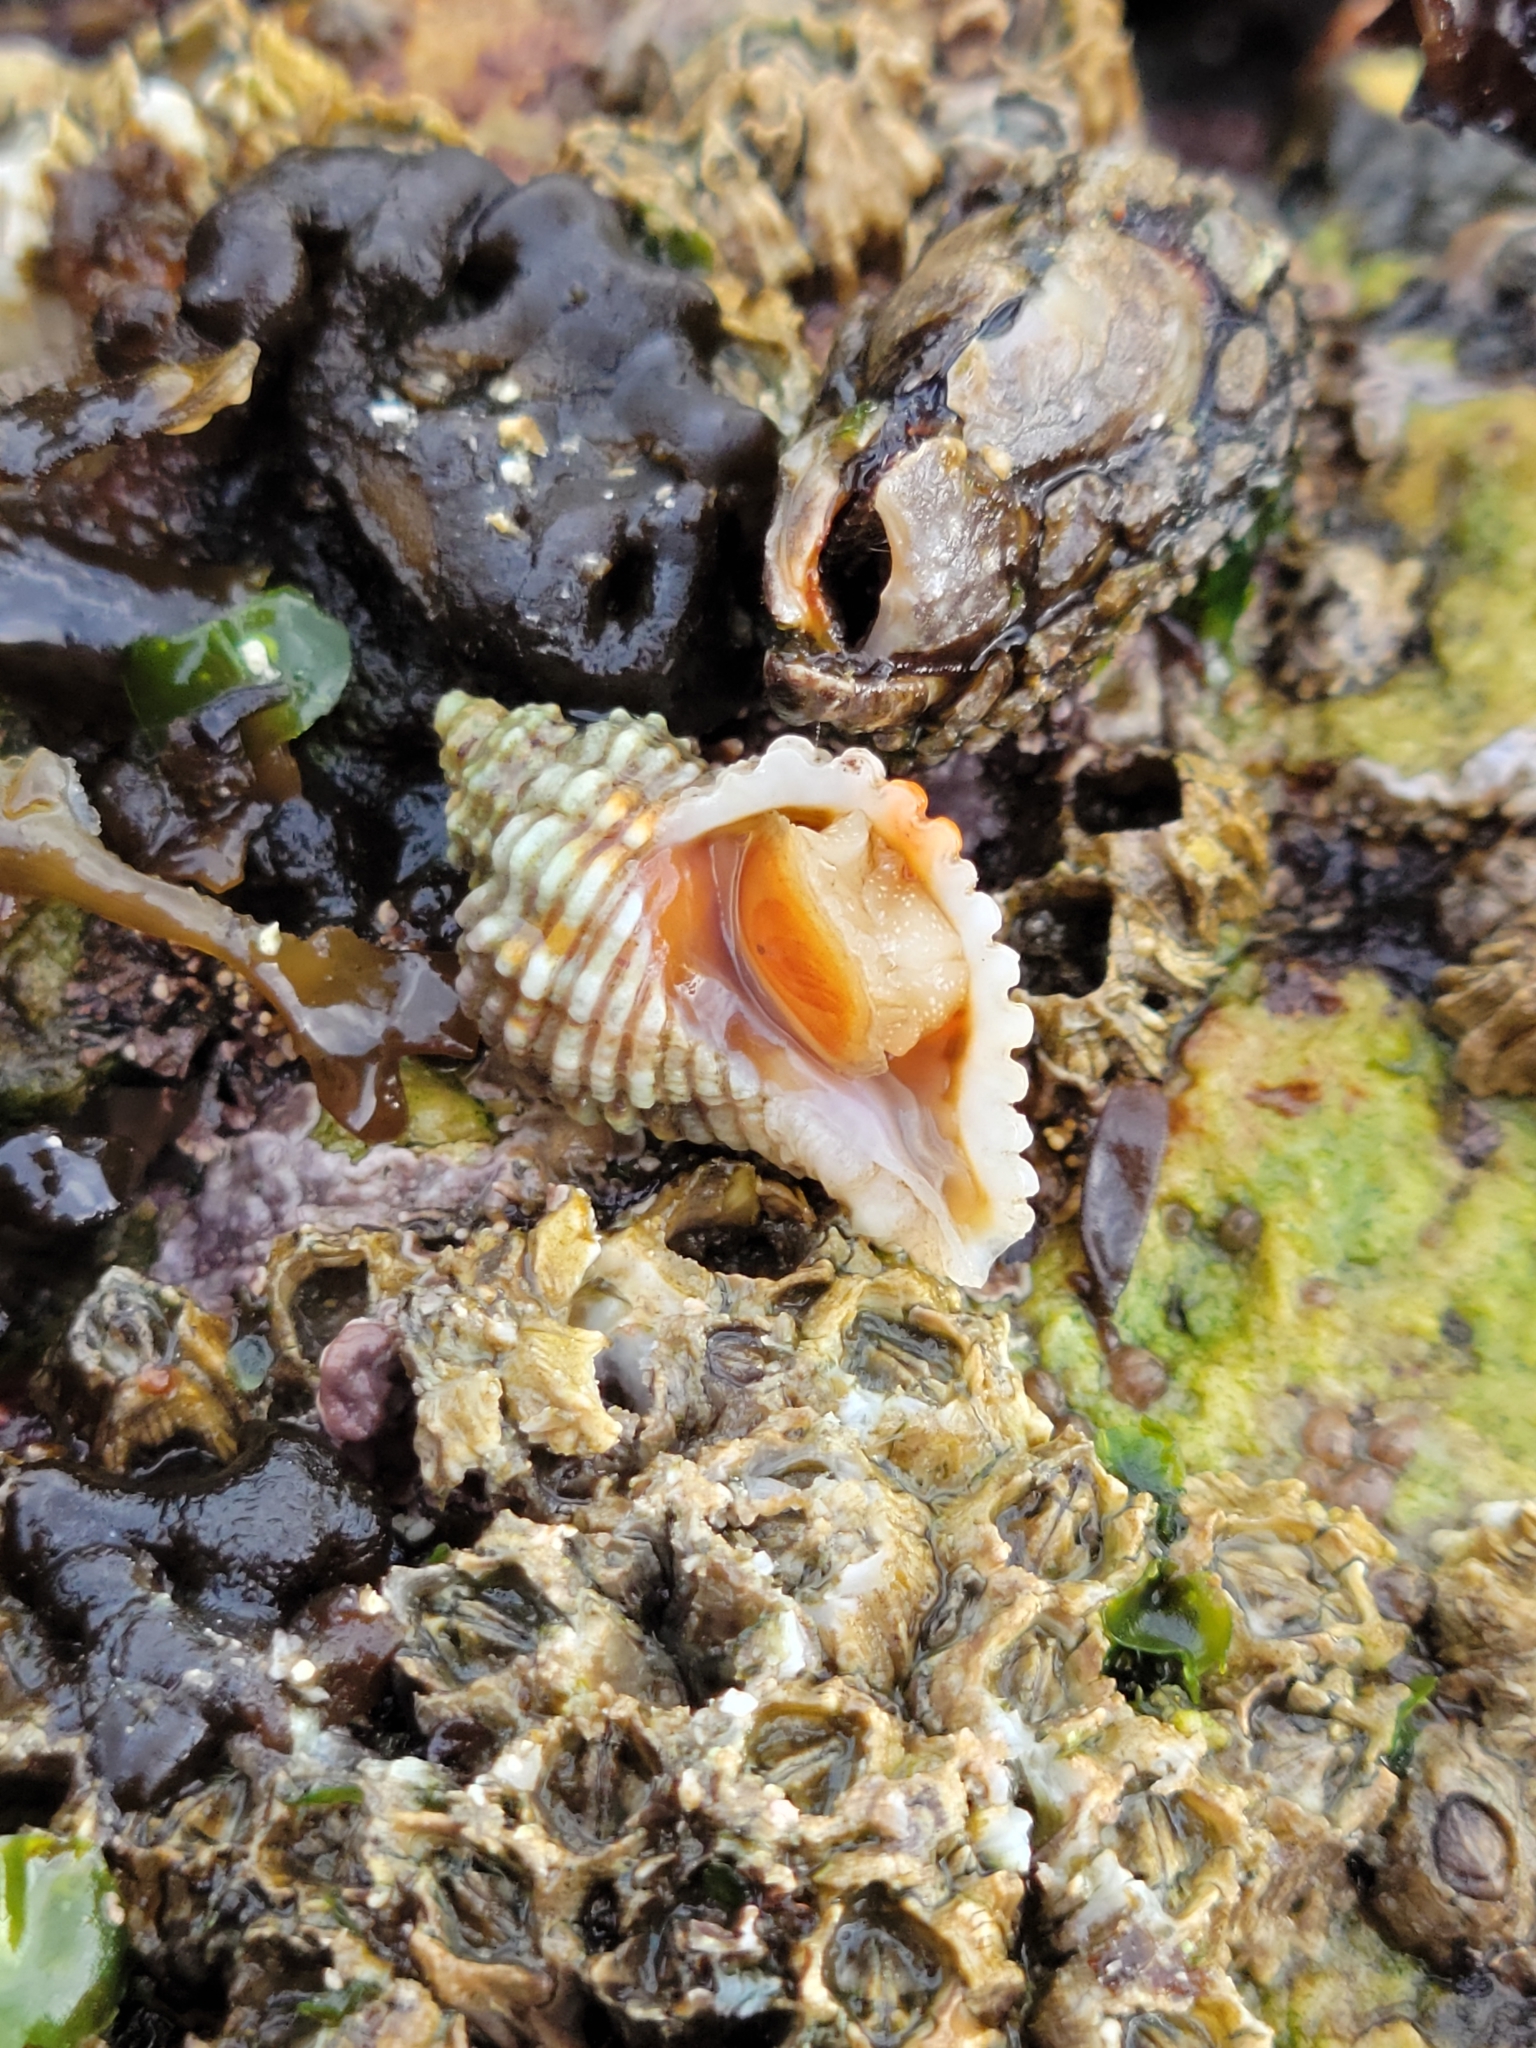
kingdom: Animalia
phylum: Mollusca
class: Gastropoda
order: Neogastropoda
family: Muricidae
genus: Paciocinebrina
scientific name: Paciocinebrina circumtexta
